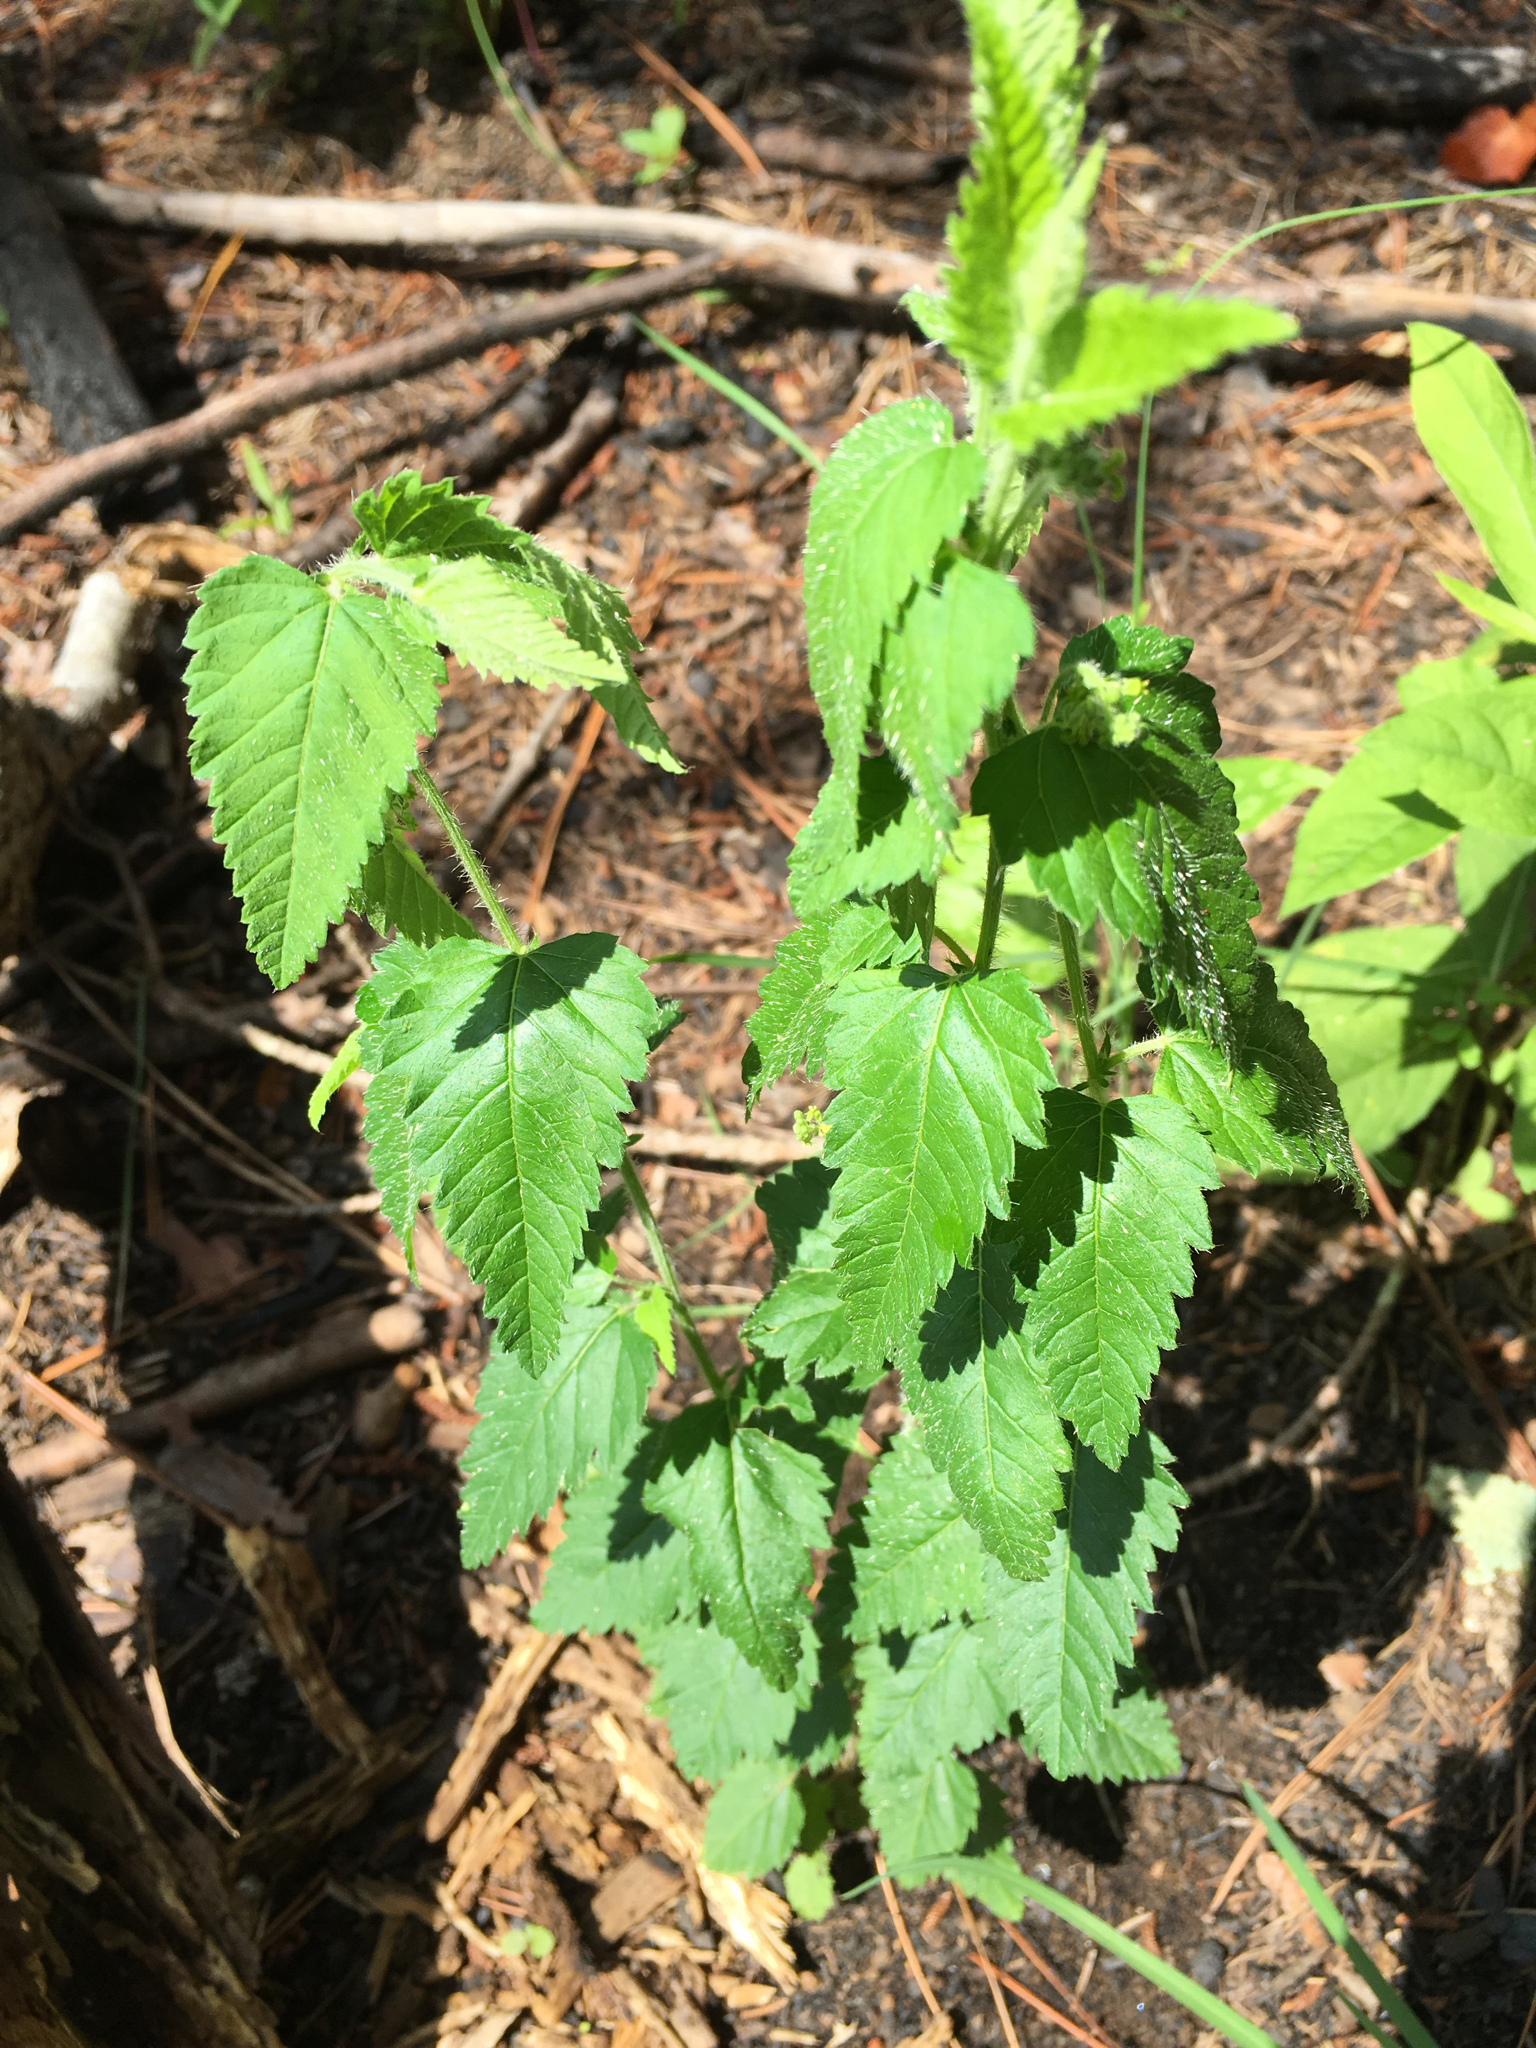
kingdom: Plantae
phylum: Tracheophyta
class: Magnoliopsida
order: Malpighiales
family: Euphorbiaceae
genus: Tragia
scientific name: Tragia urticifolia
